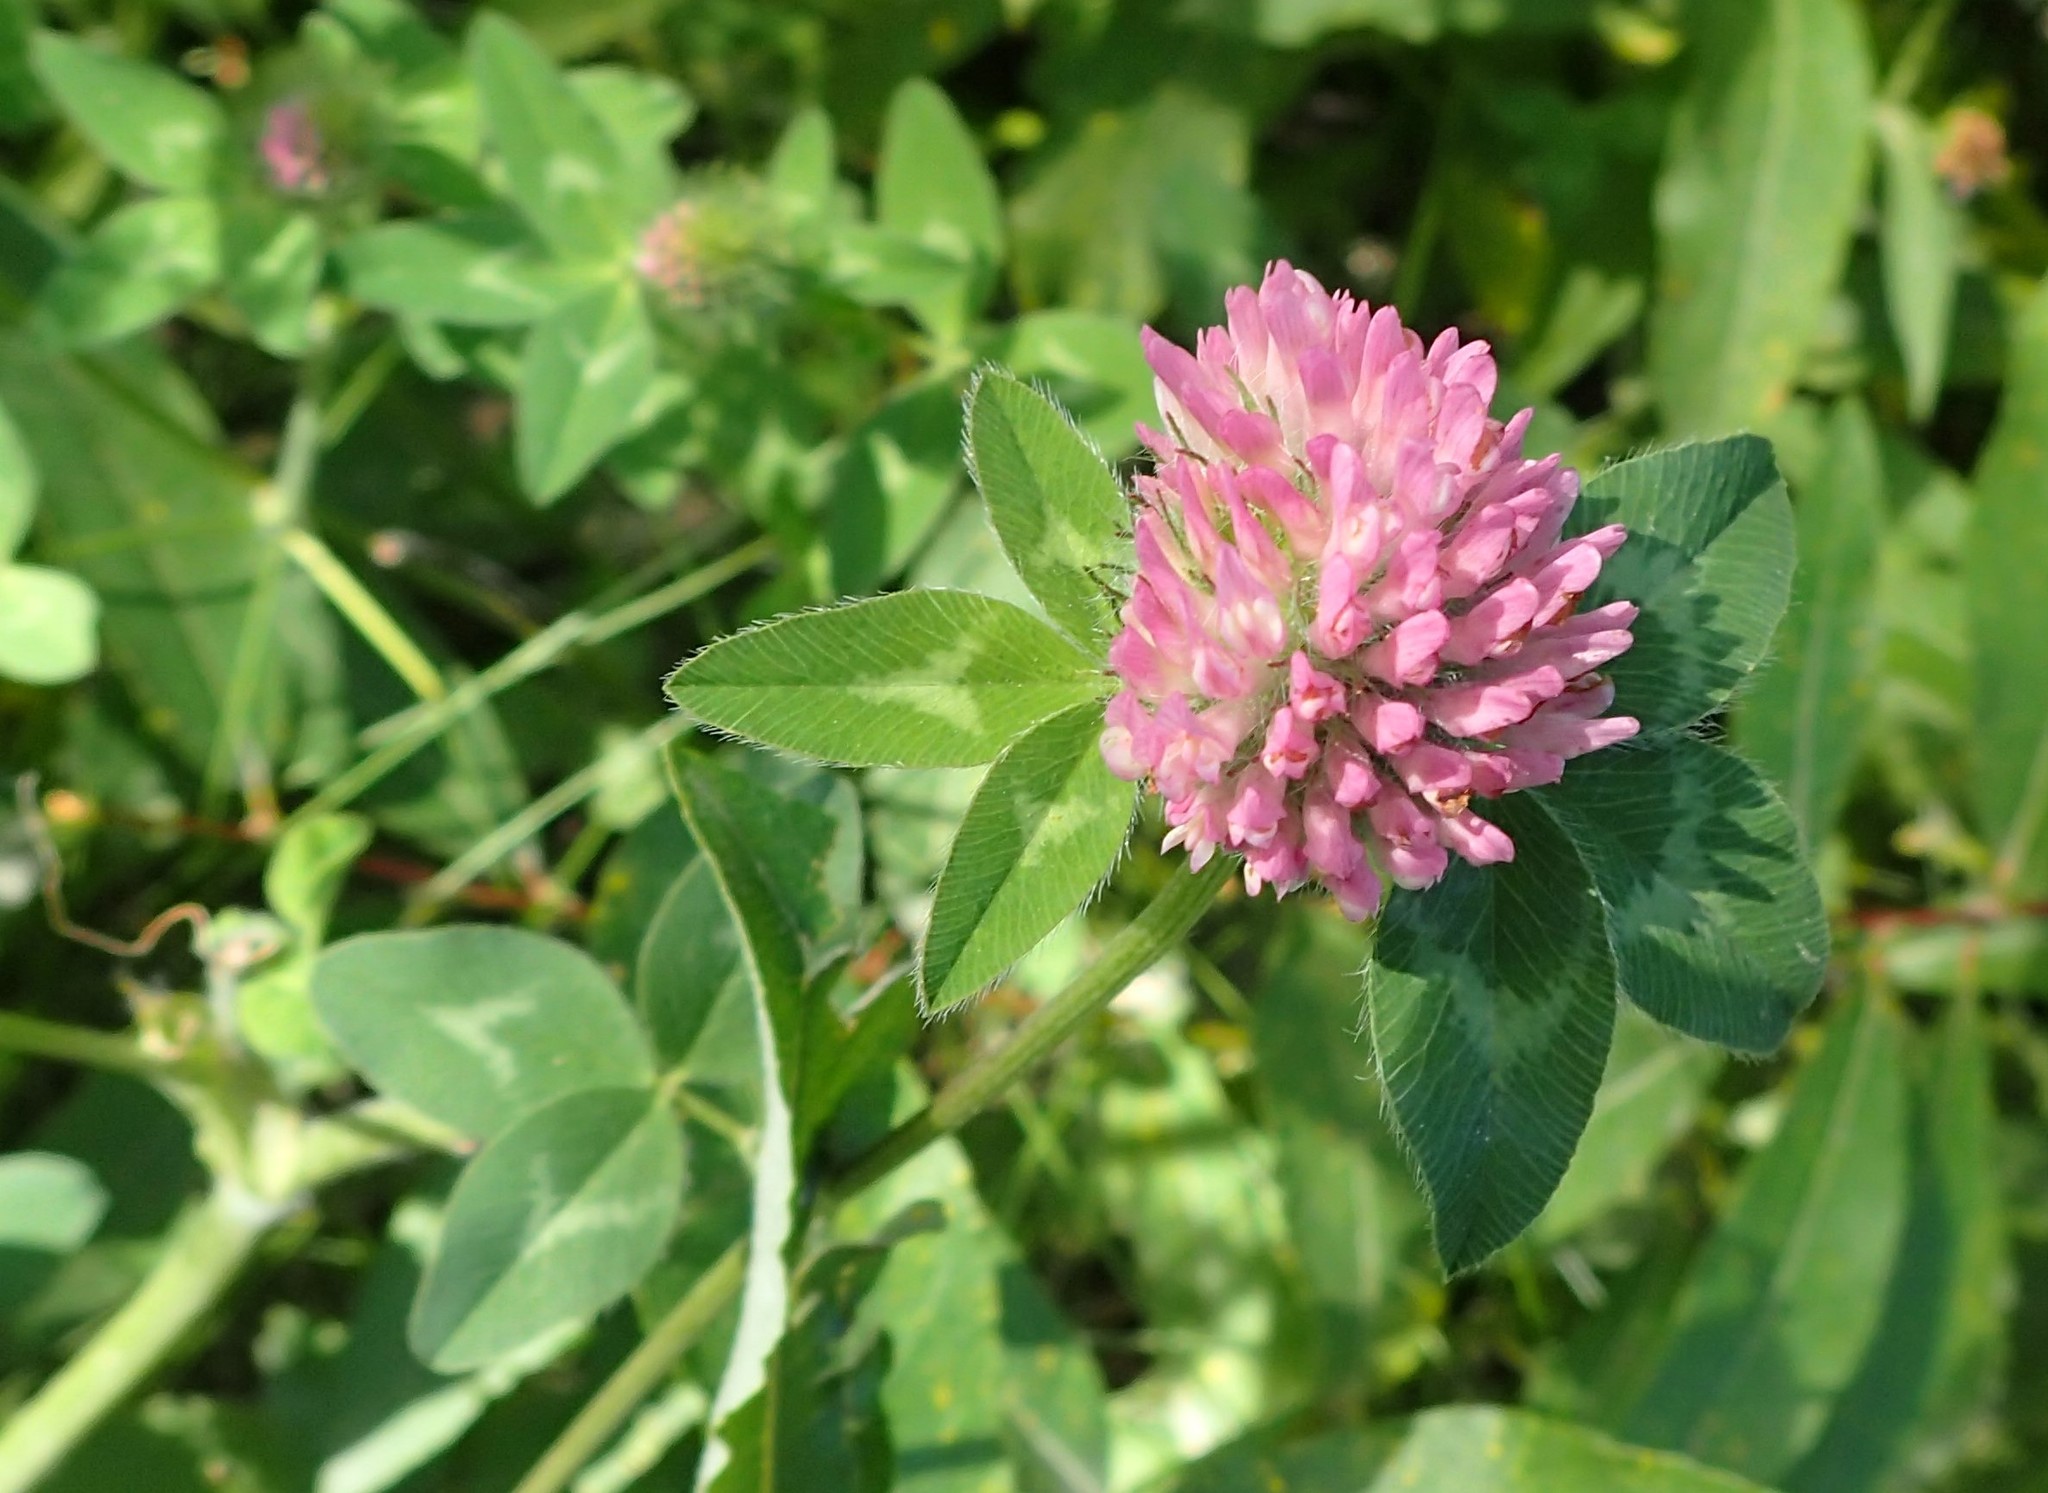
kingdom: Plantae
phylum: Tracheophyta
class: Magnoliopsida
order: Fabales
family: Fabaceae
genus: Trifolium
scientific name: Trifolium pratense
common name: Red clover
